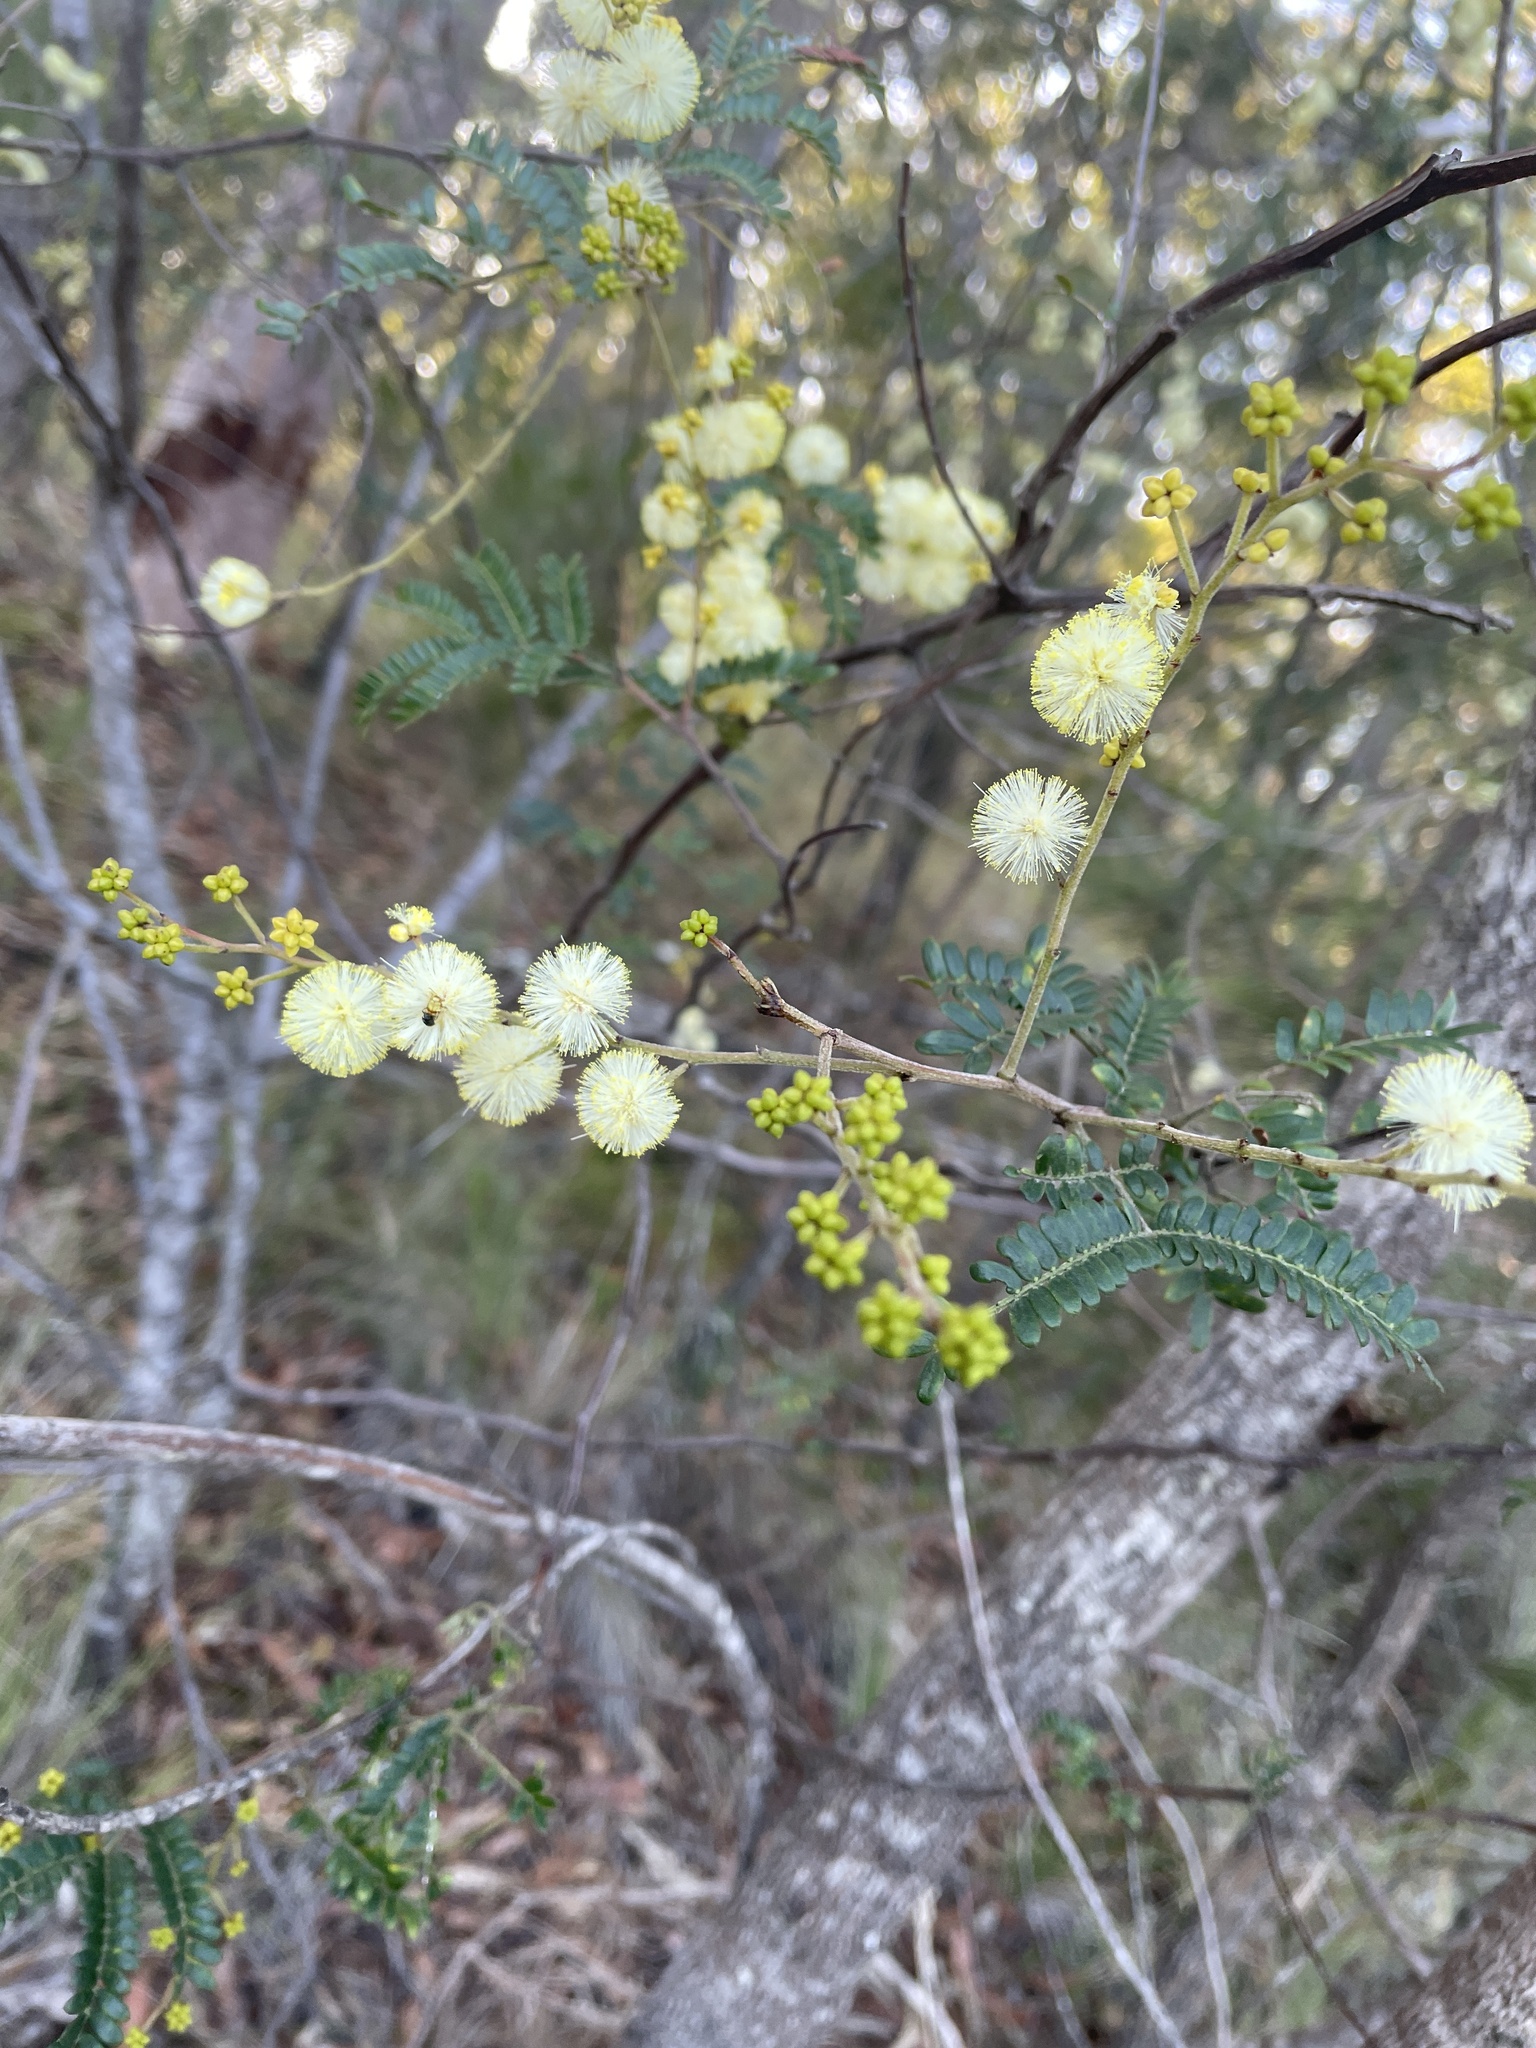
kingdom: Plantae
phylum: Tracheophyta
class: Magnoliopsida
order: Fabales
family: Fabaceae
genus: Acacia
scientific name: Acacia terminalis
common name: Cedar wattle
